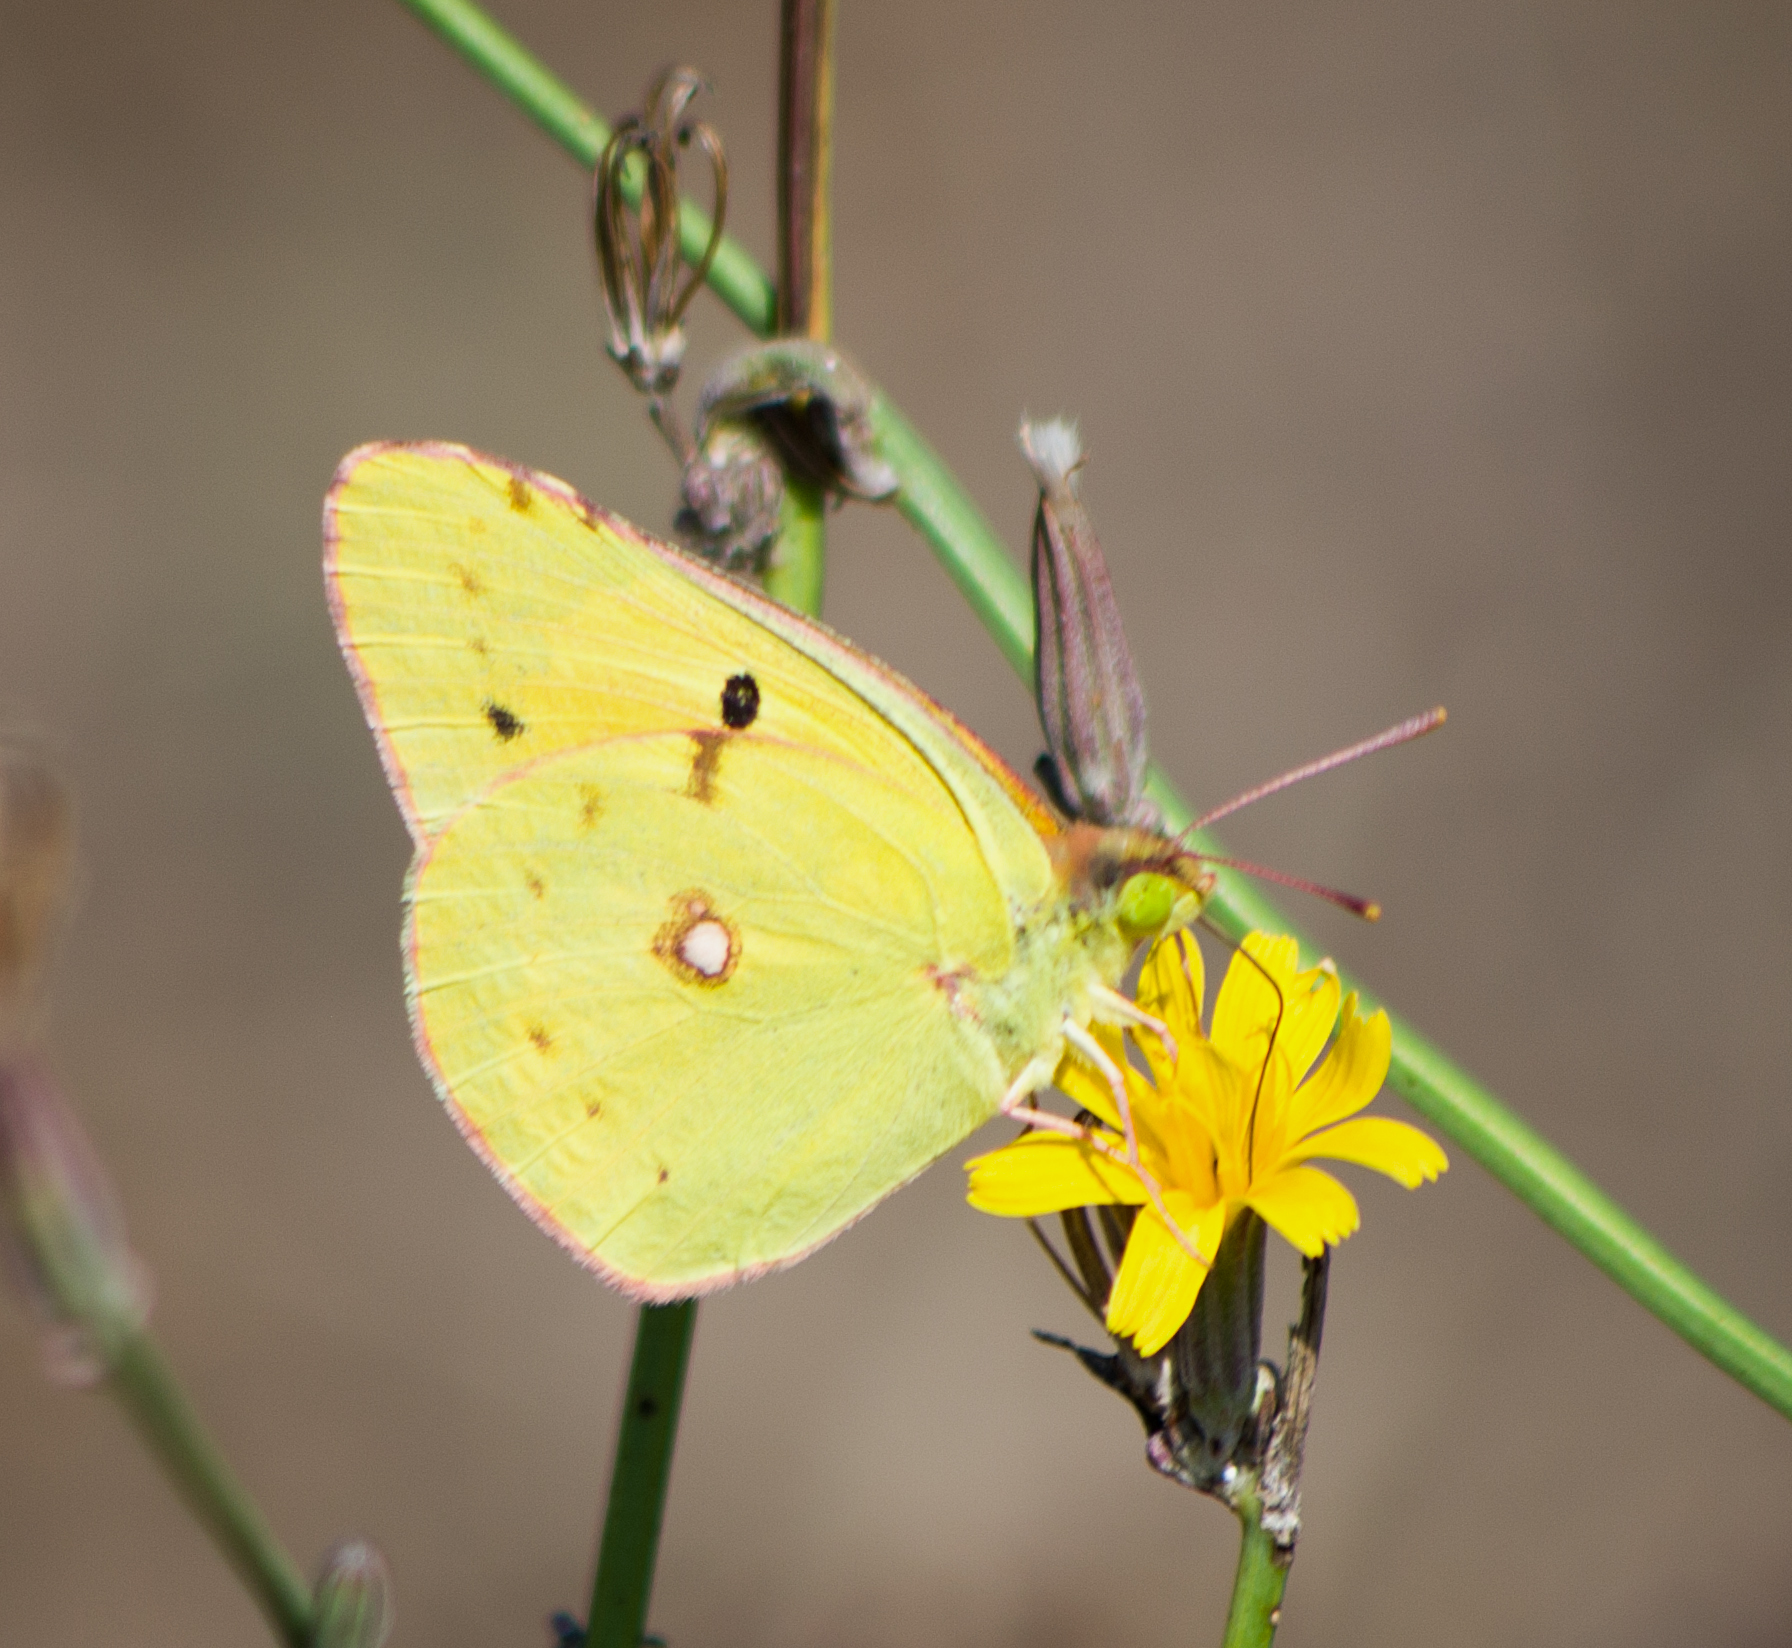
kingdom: Animalia
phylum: Arthropoda
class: Insecta
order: Lepidoptera
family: Pieridae
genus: Colias
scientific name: Colias croceus
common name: Clouded yellow
